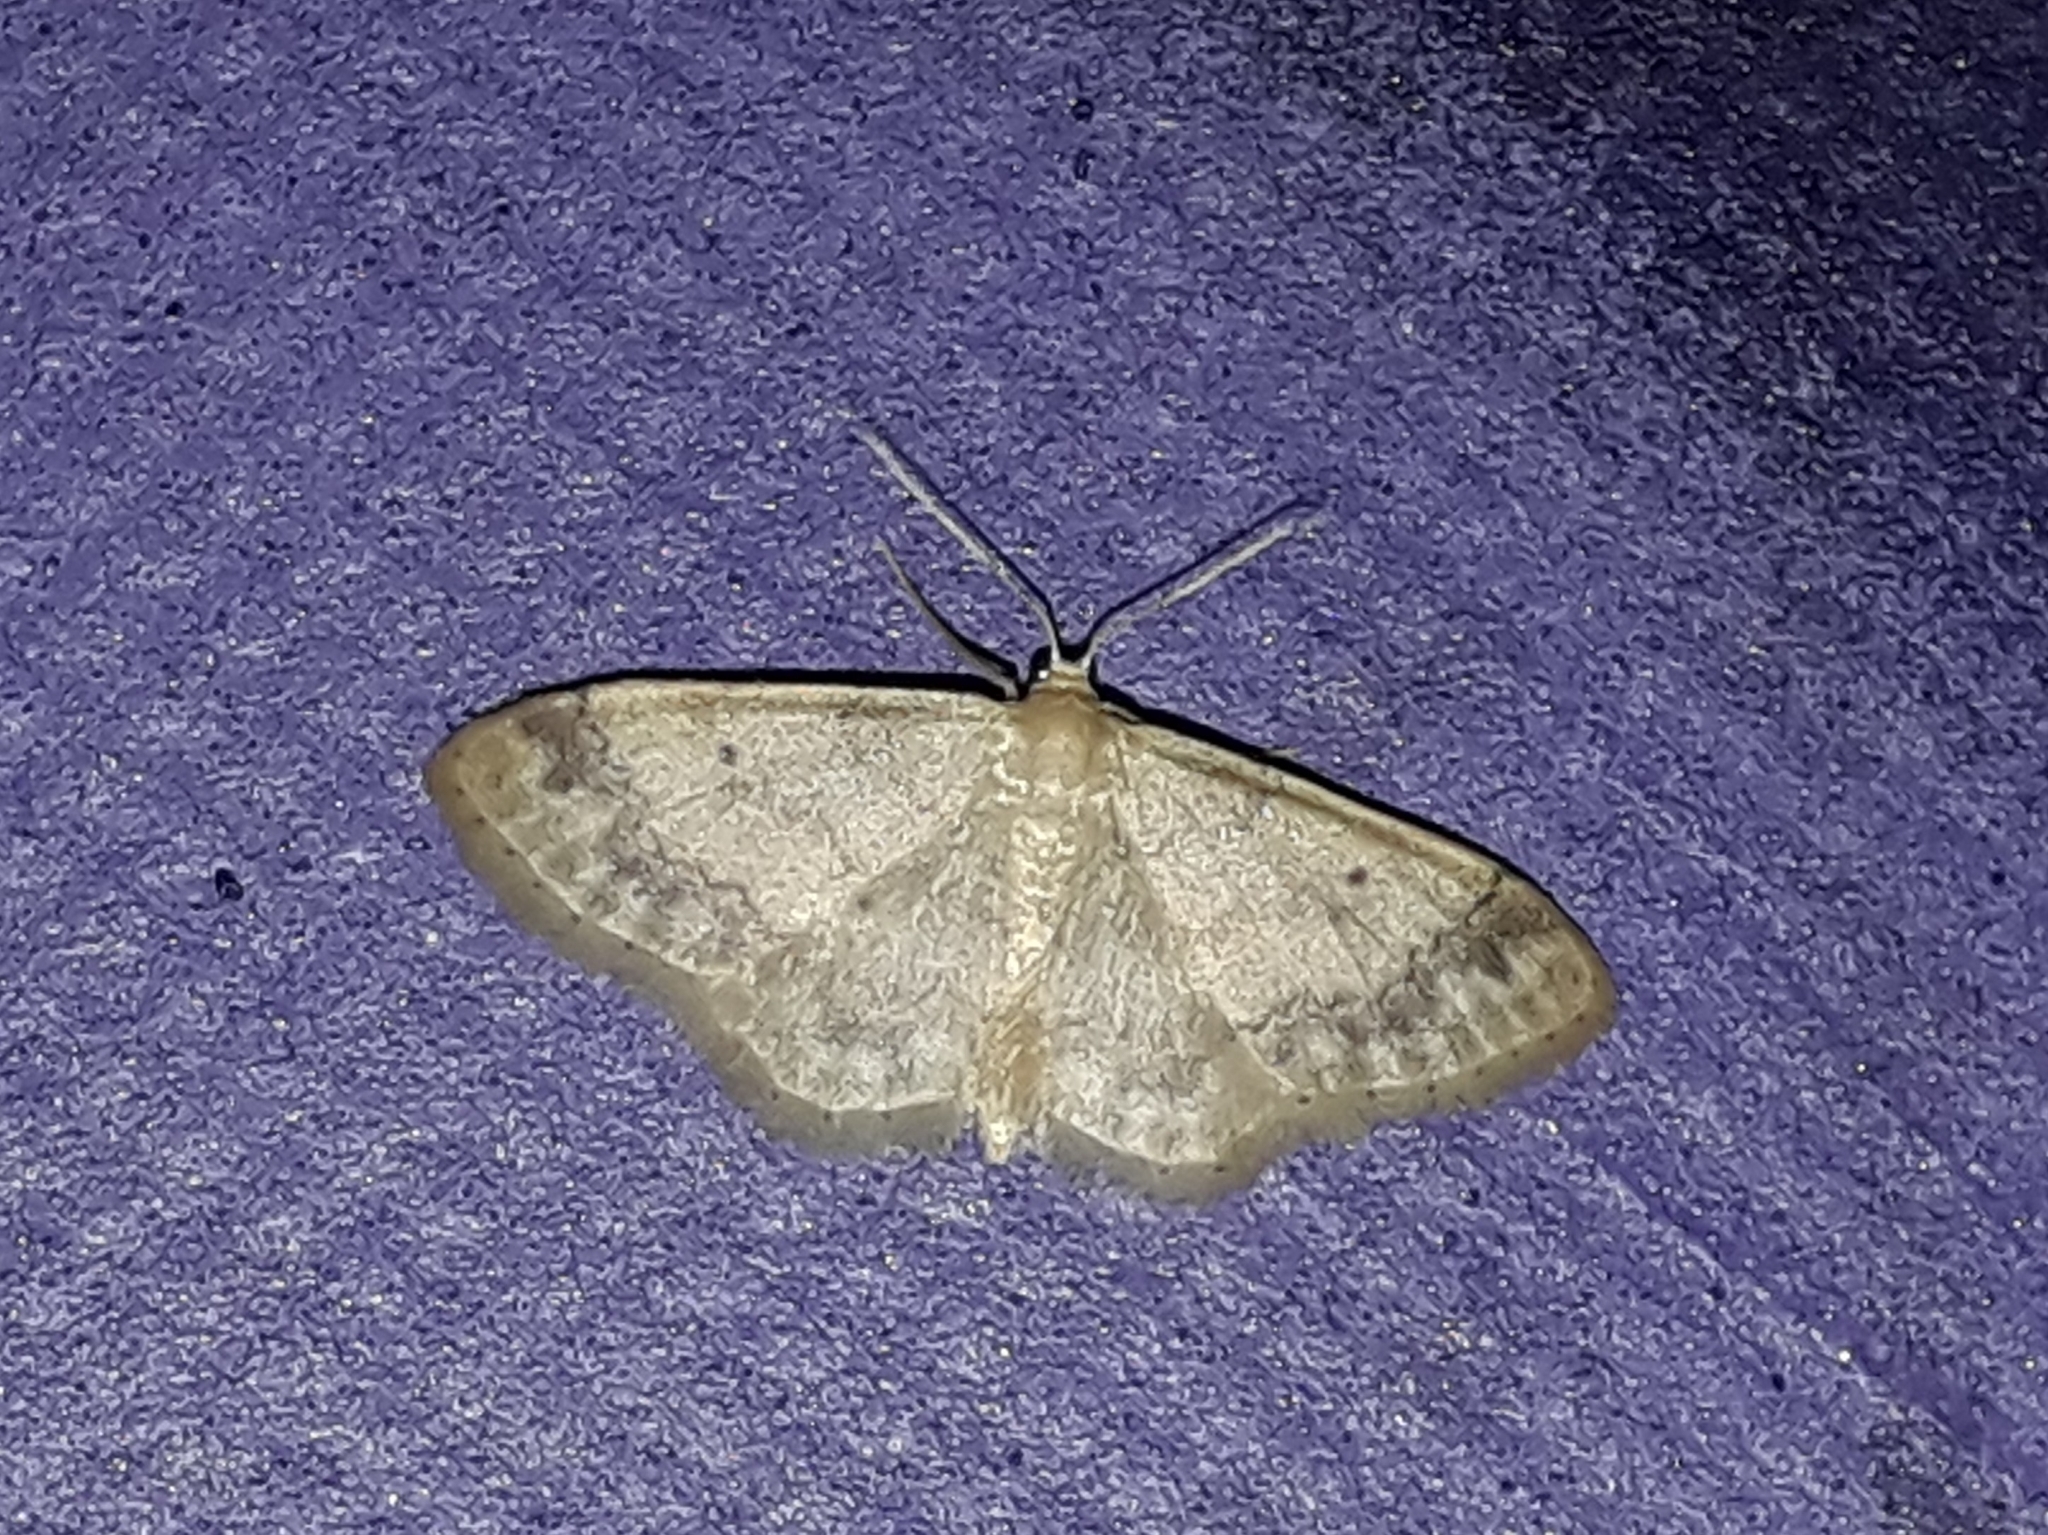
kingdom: Animalia
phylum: Arthropoda
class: Insecta
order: Lepidoptera
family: Geometridae
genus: Idaea
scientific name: Idaea biselata
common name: Small fan-footed wave
